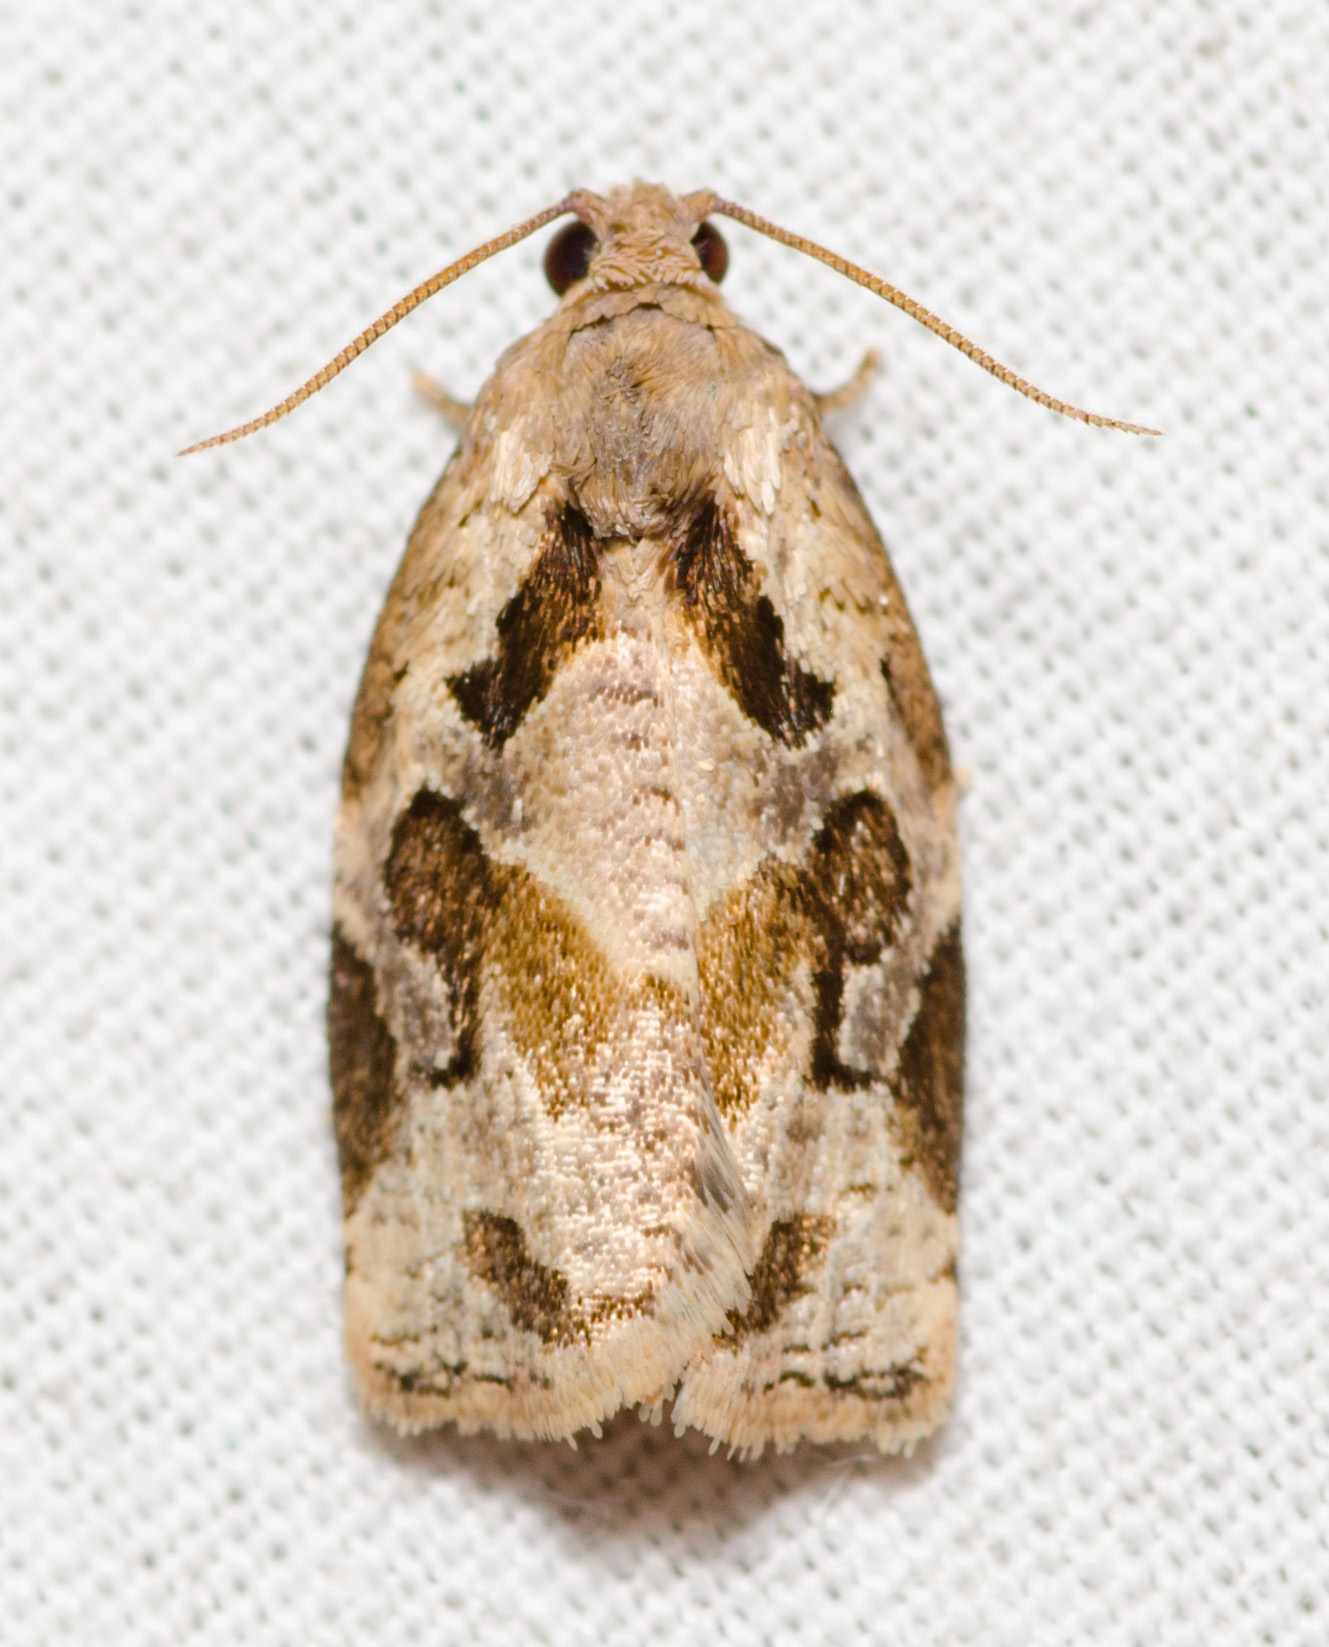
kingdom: Animalia
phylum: Arthropoda
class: Insecta
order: Lepidoptera
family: Tortricidae
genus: Archips
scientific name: Archips grisea
